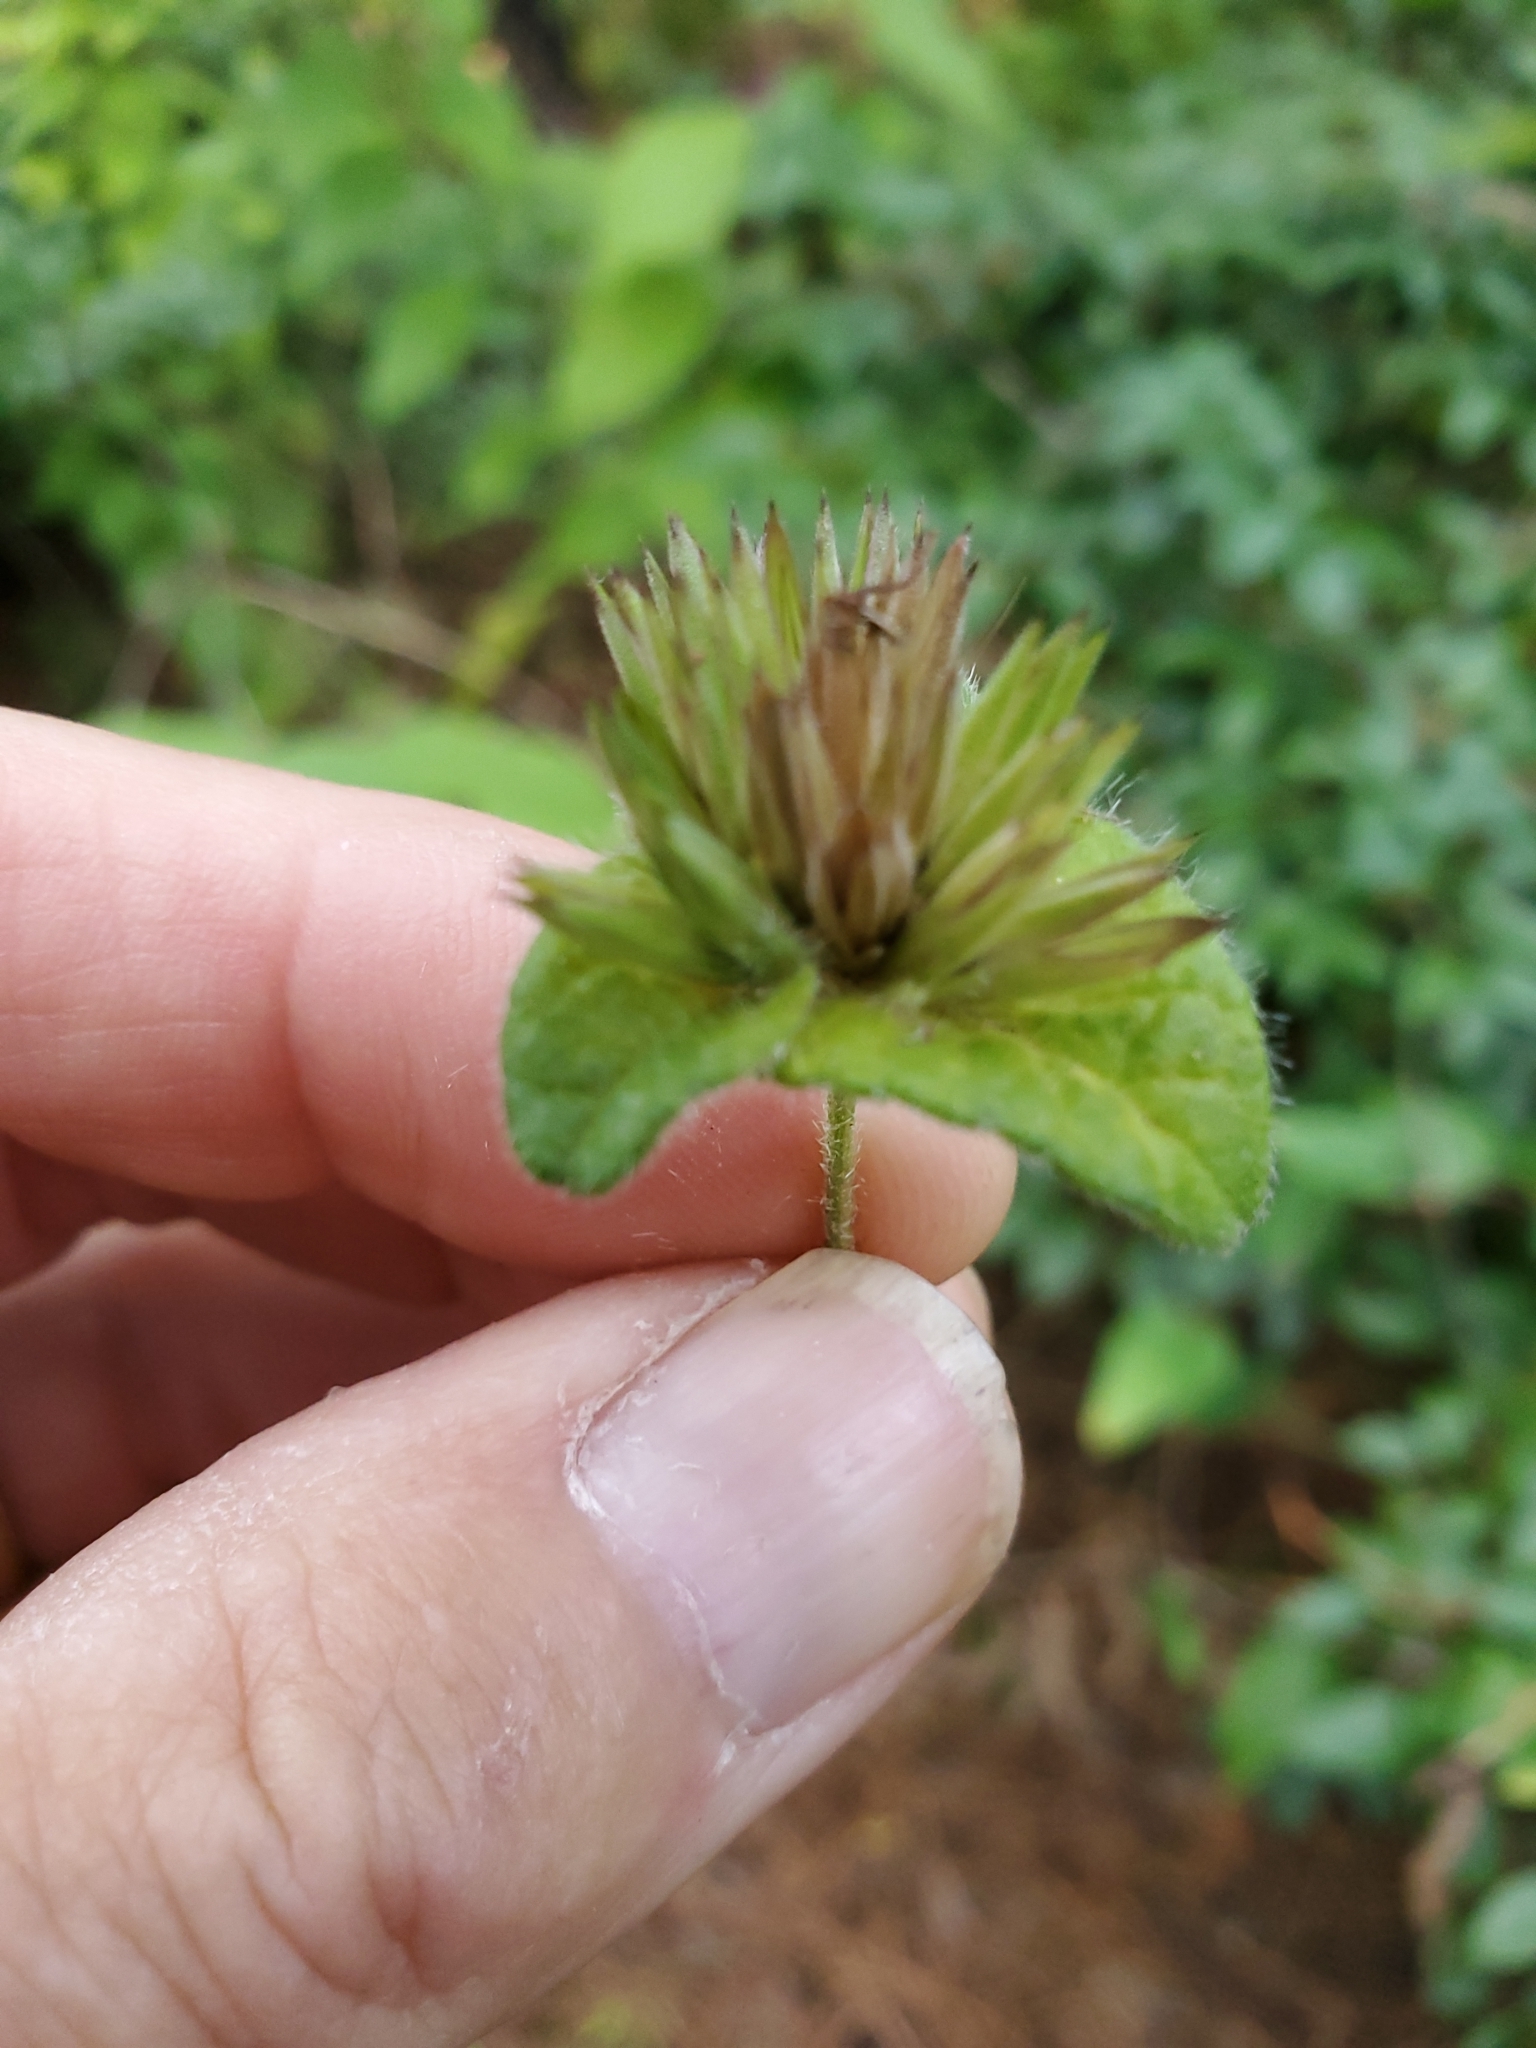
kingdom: Plantae
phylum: Tracheophyta
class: Magnoliopsida
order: Asterales
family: Asteraceae
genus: Elephantopus
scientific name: Elephantopus carolinianus
